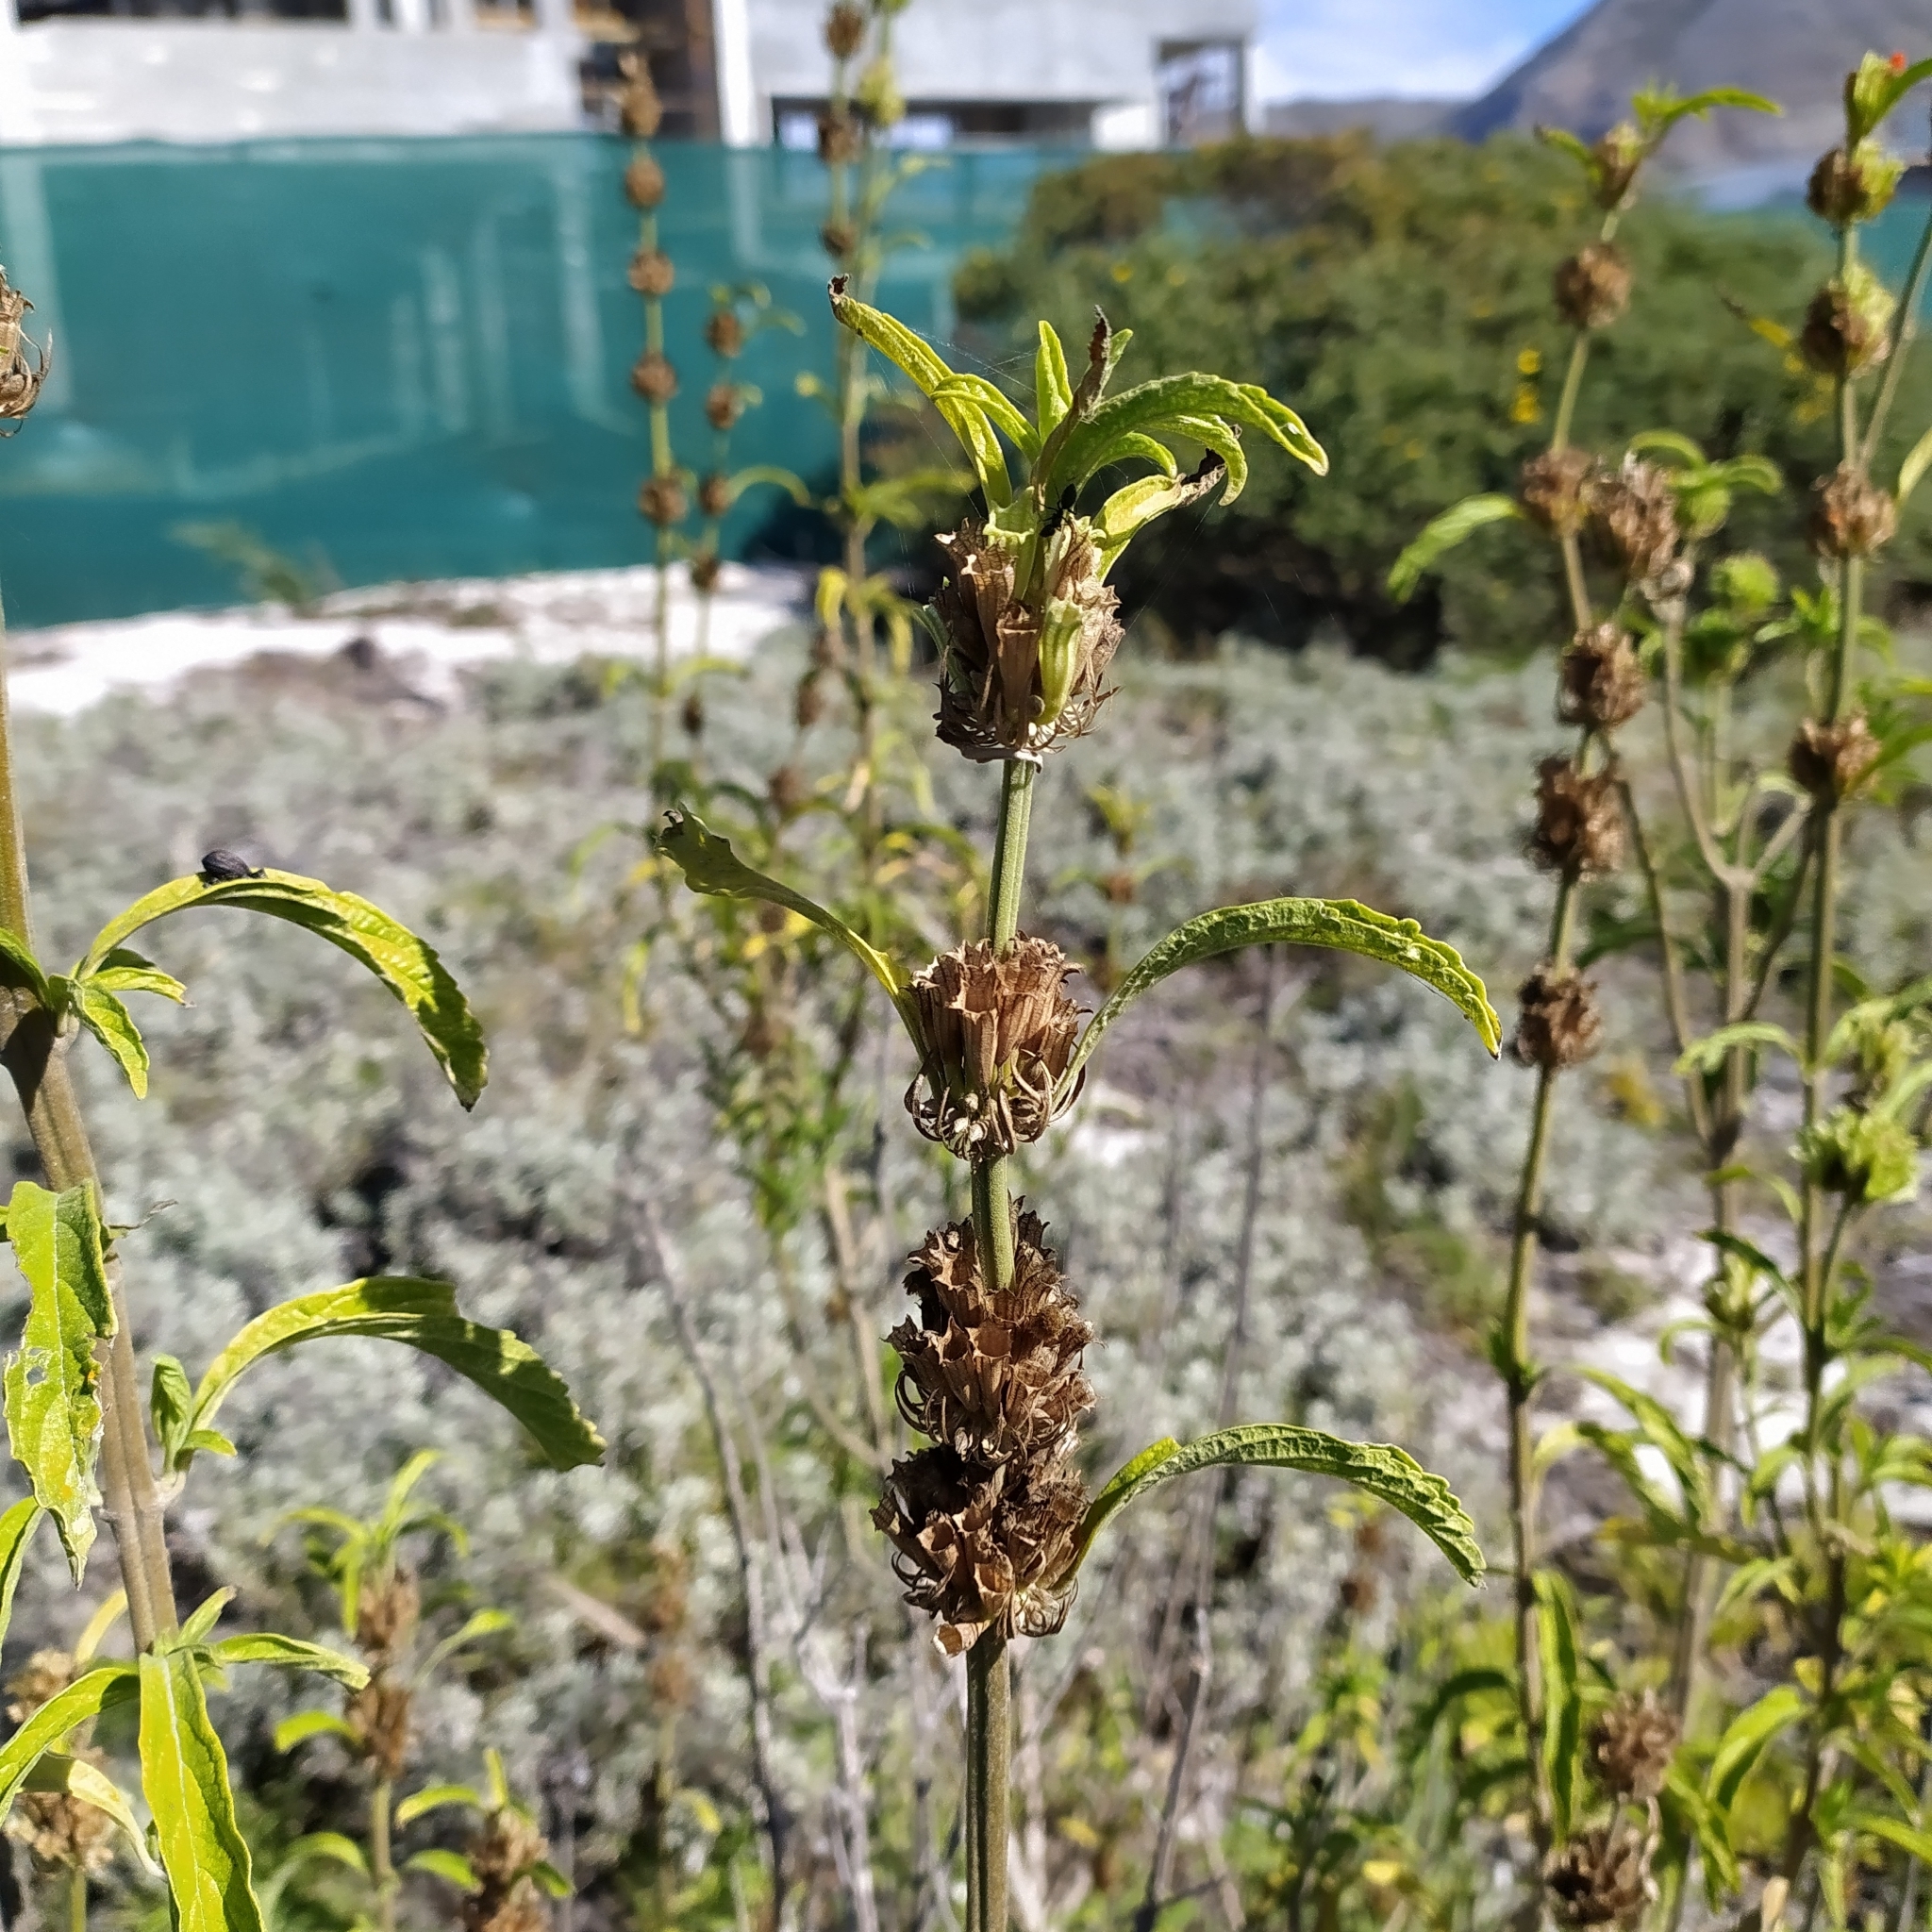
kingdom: Plantae
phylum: Tracheophyta
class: Magnoliopsida
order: Lamiales
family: Lamiaceae
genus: Leonotis
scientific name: Leonotis leonurus
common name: Lion's ear
